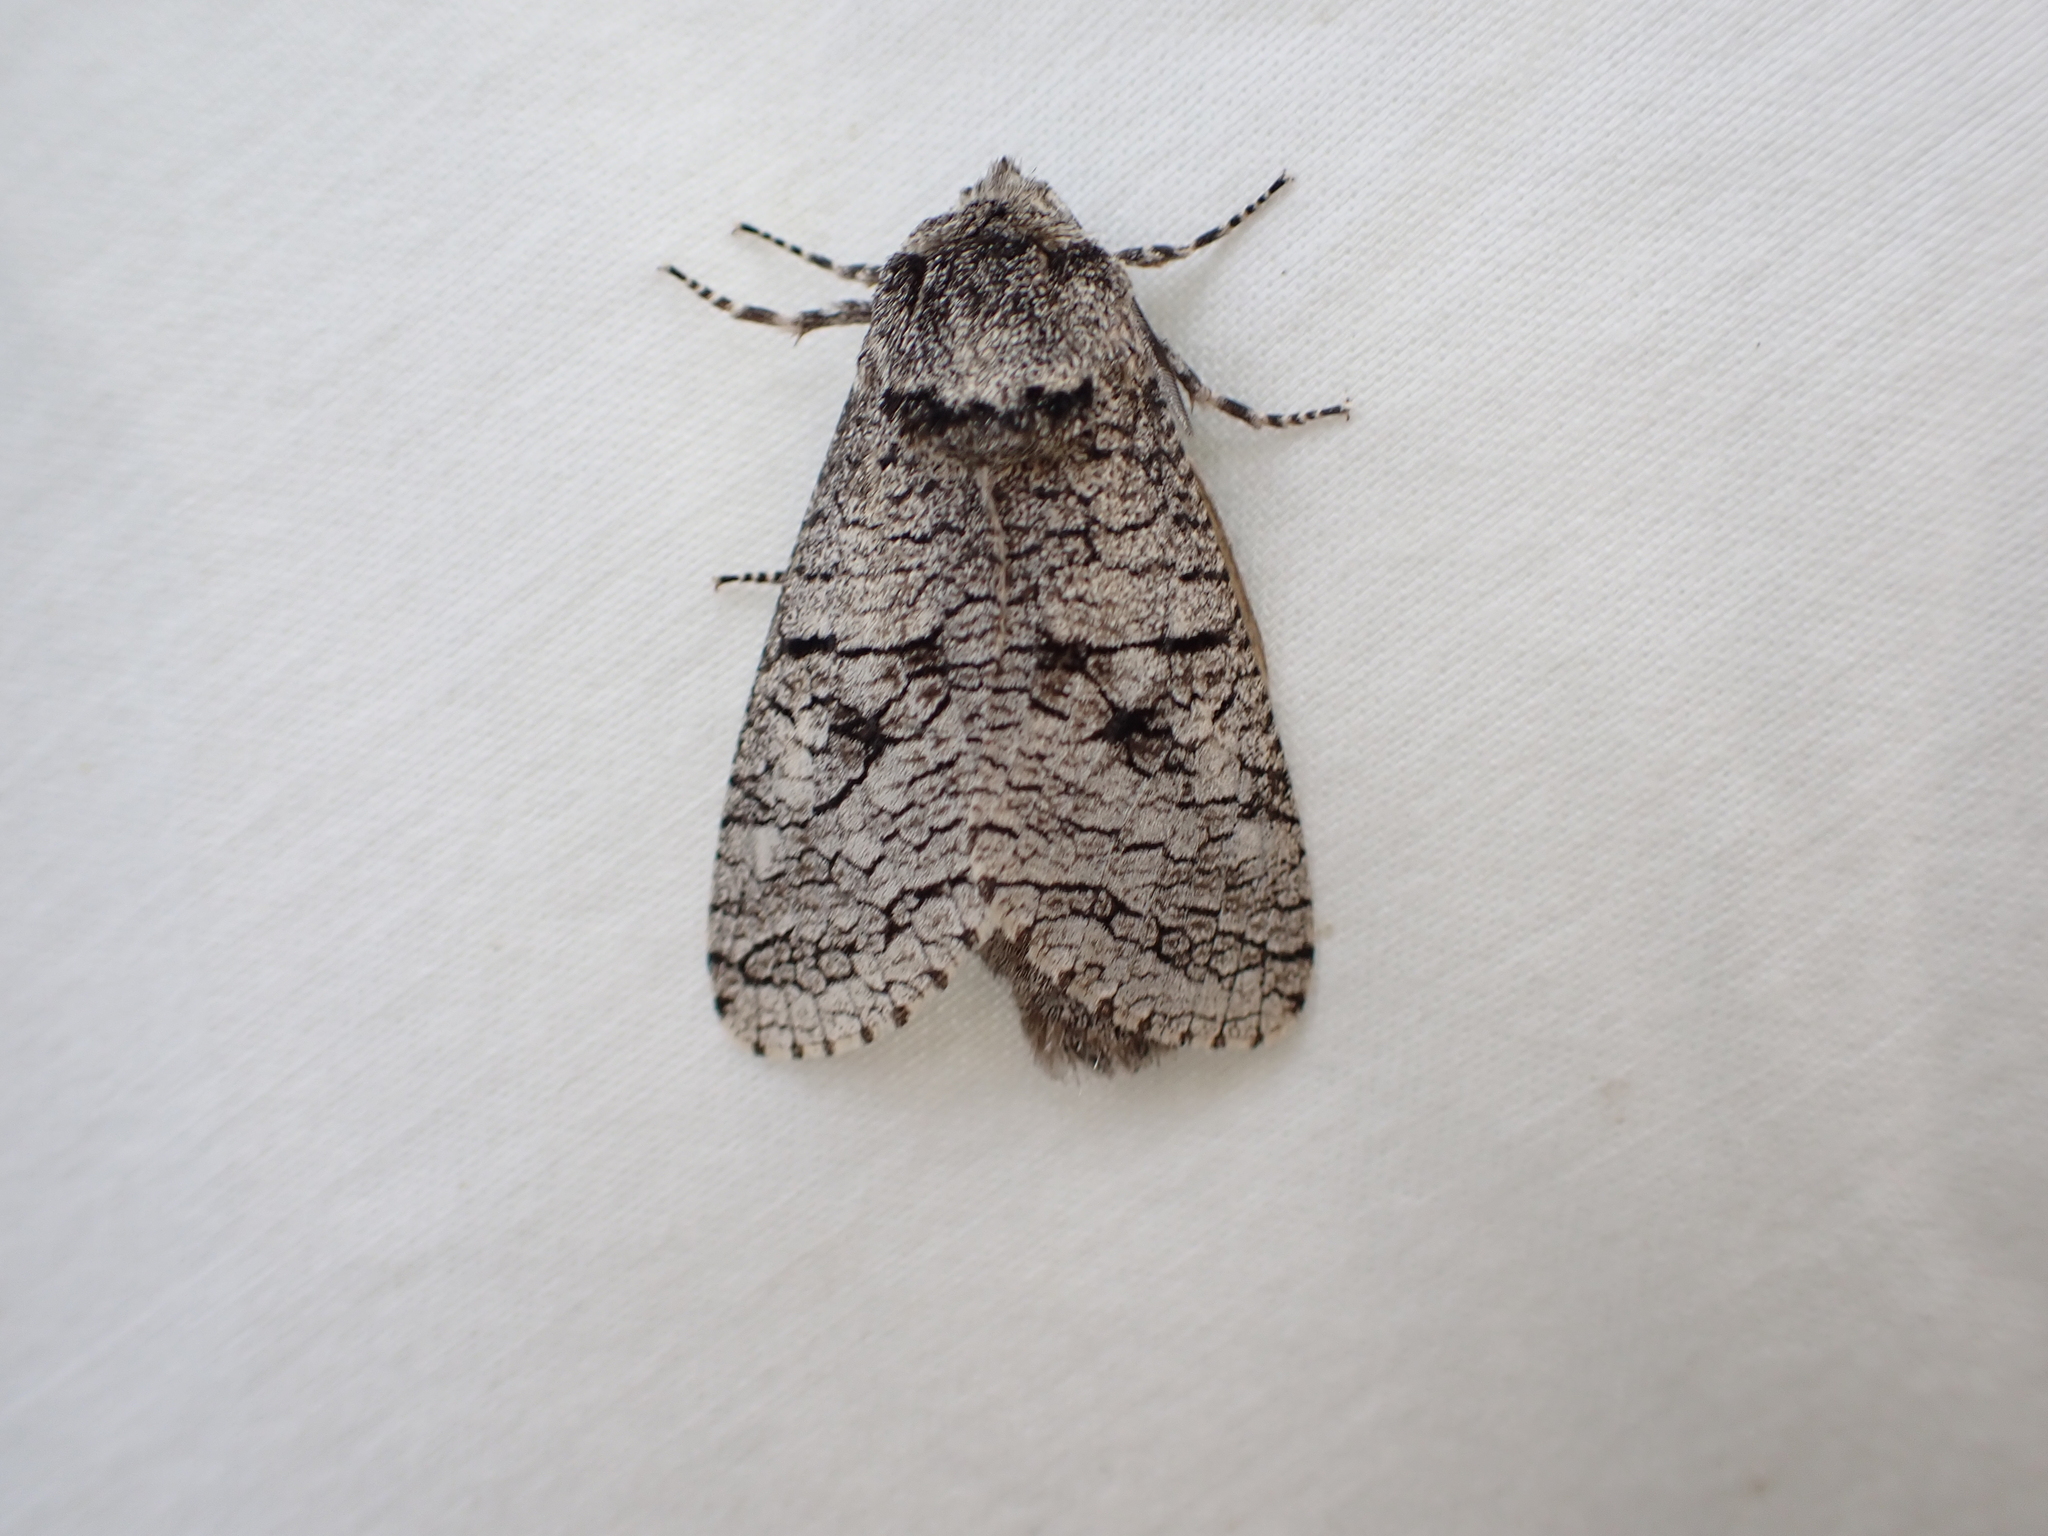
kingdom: Animalia
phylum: Arthropoda
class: Insecta
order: Lepidoptera
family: Cossidae
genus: Acossus
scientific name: Acossus populi
